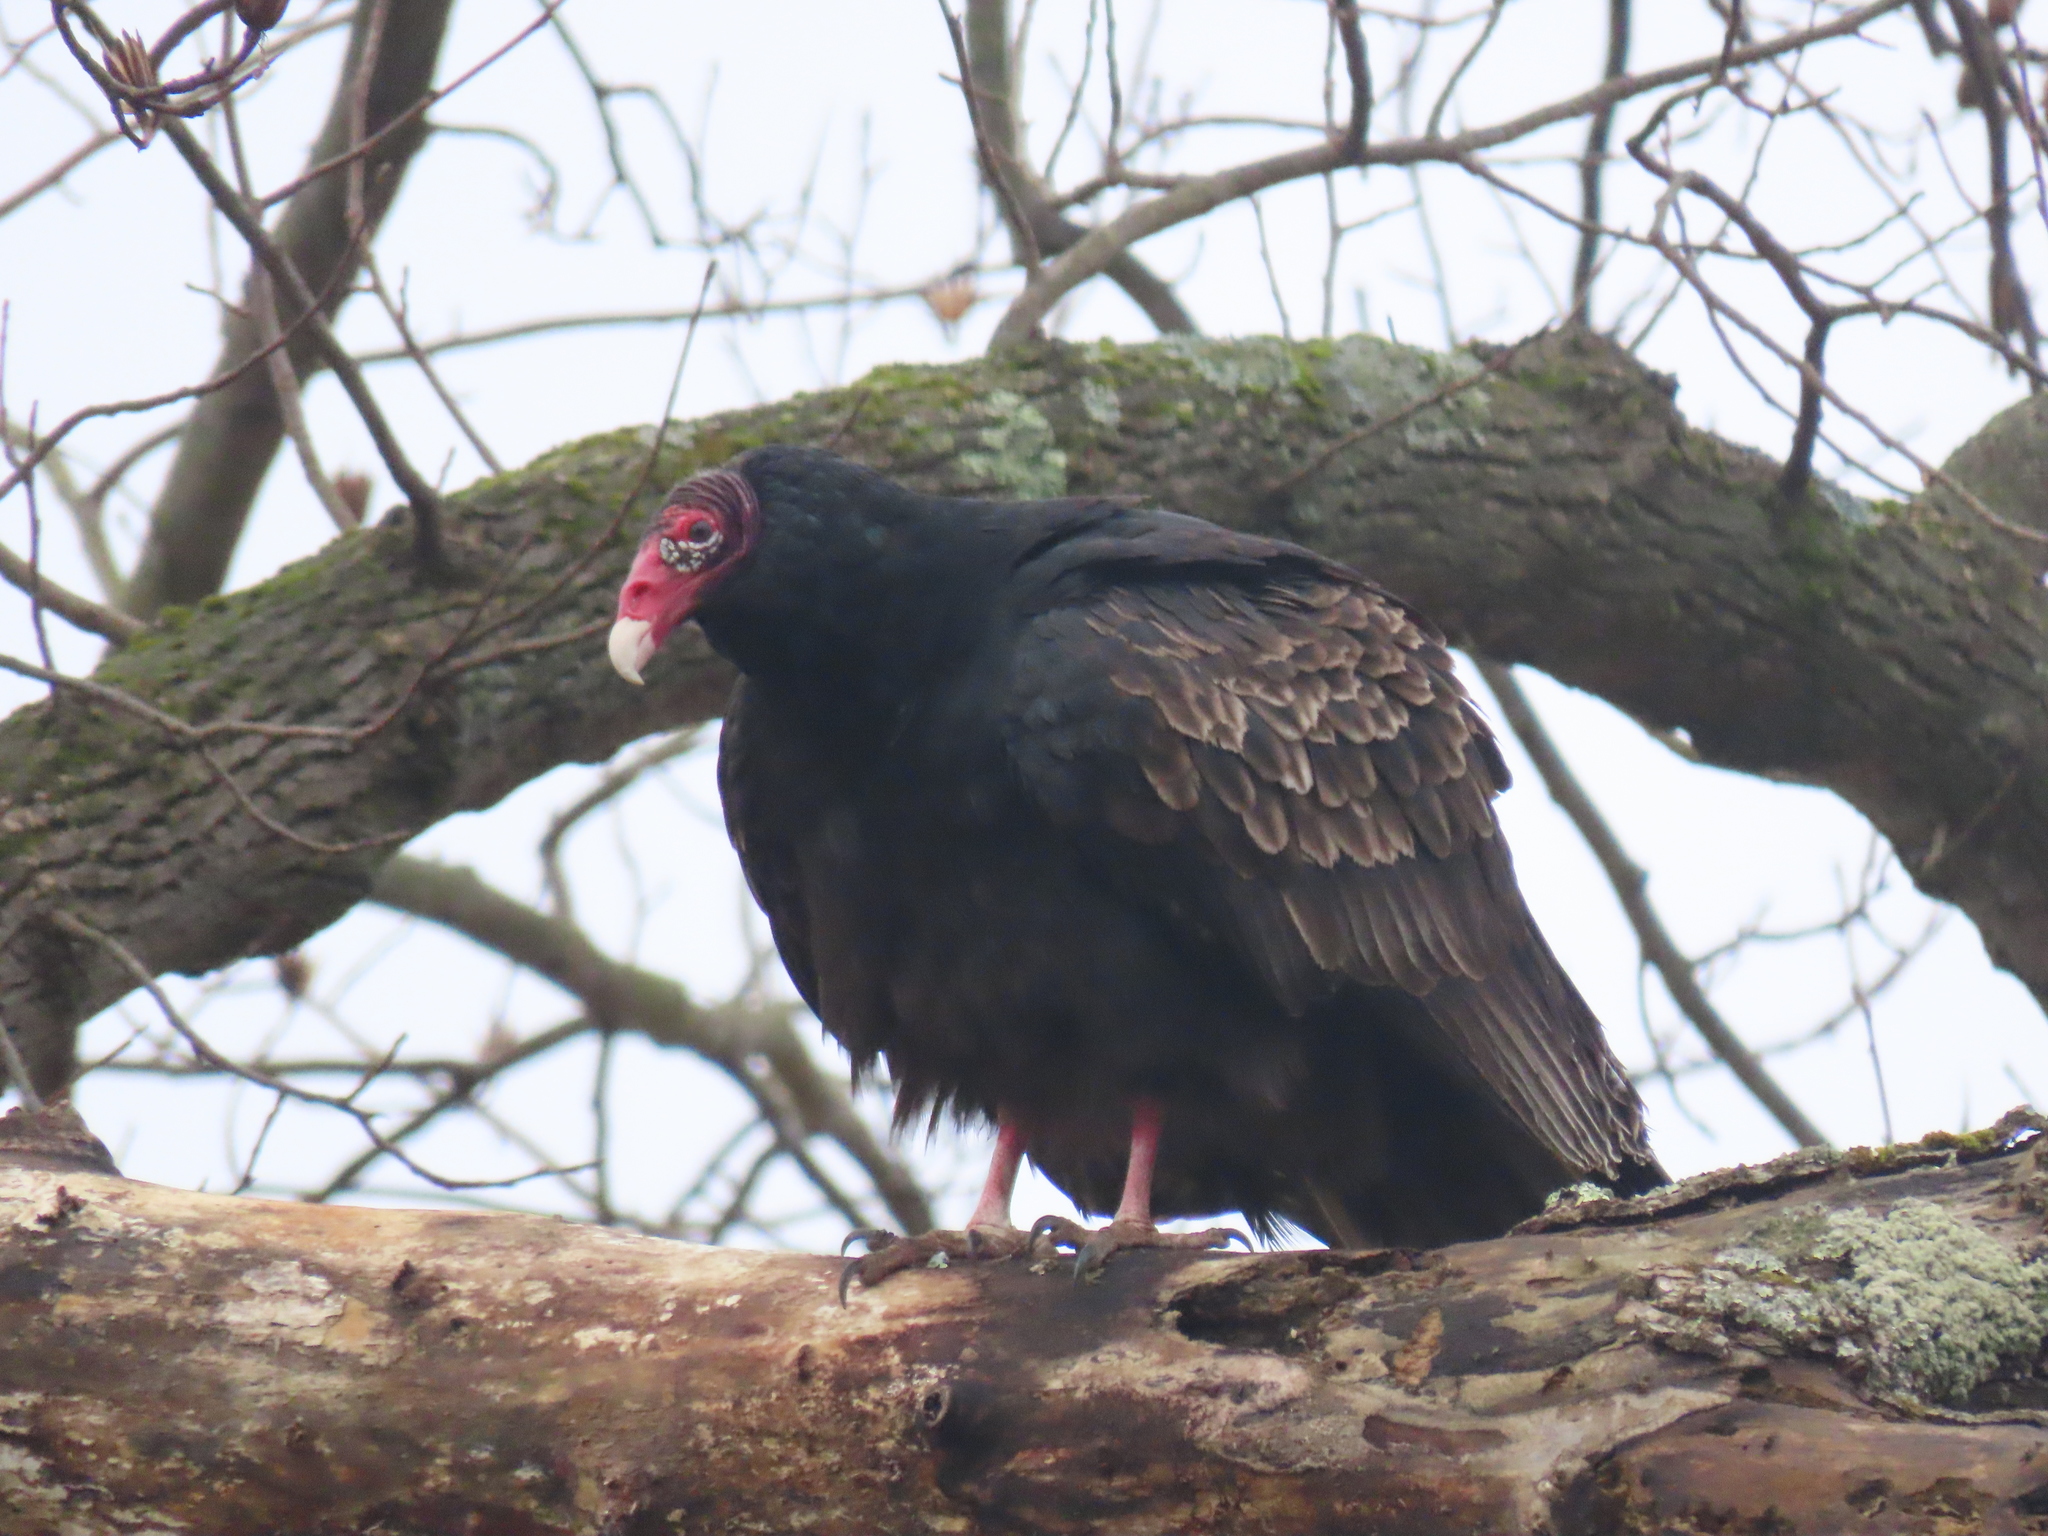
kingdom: Animalia
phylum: Chordata
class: Aves
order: Accipitriformes
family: Cathartidae
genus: Cathartes
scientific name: Cathartes aura
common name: Turkey vulture
